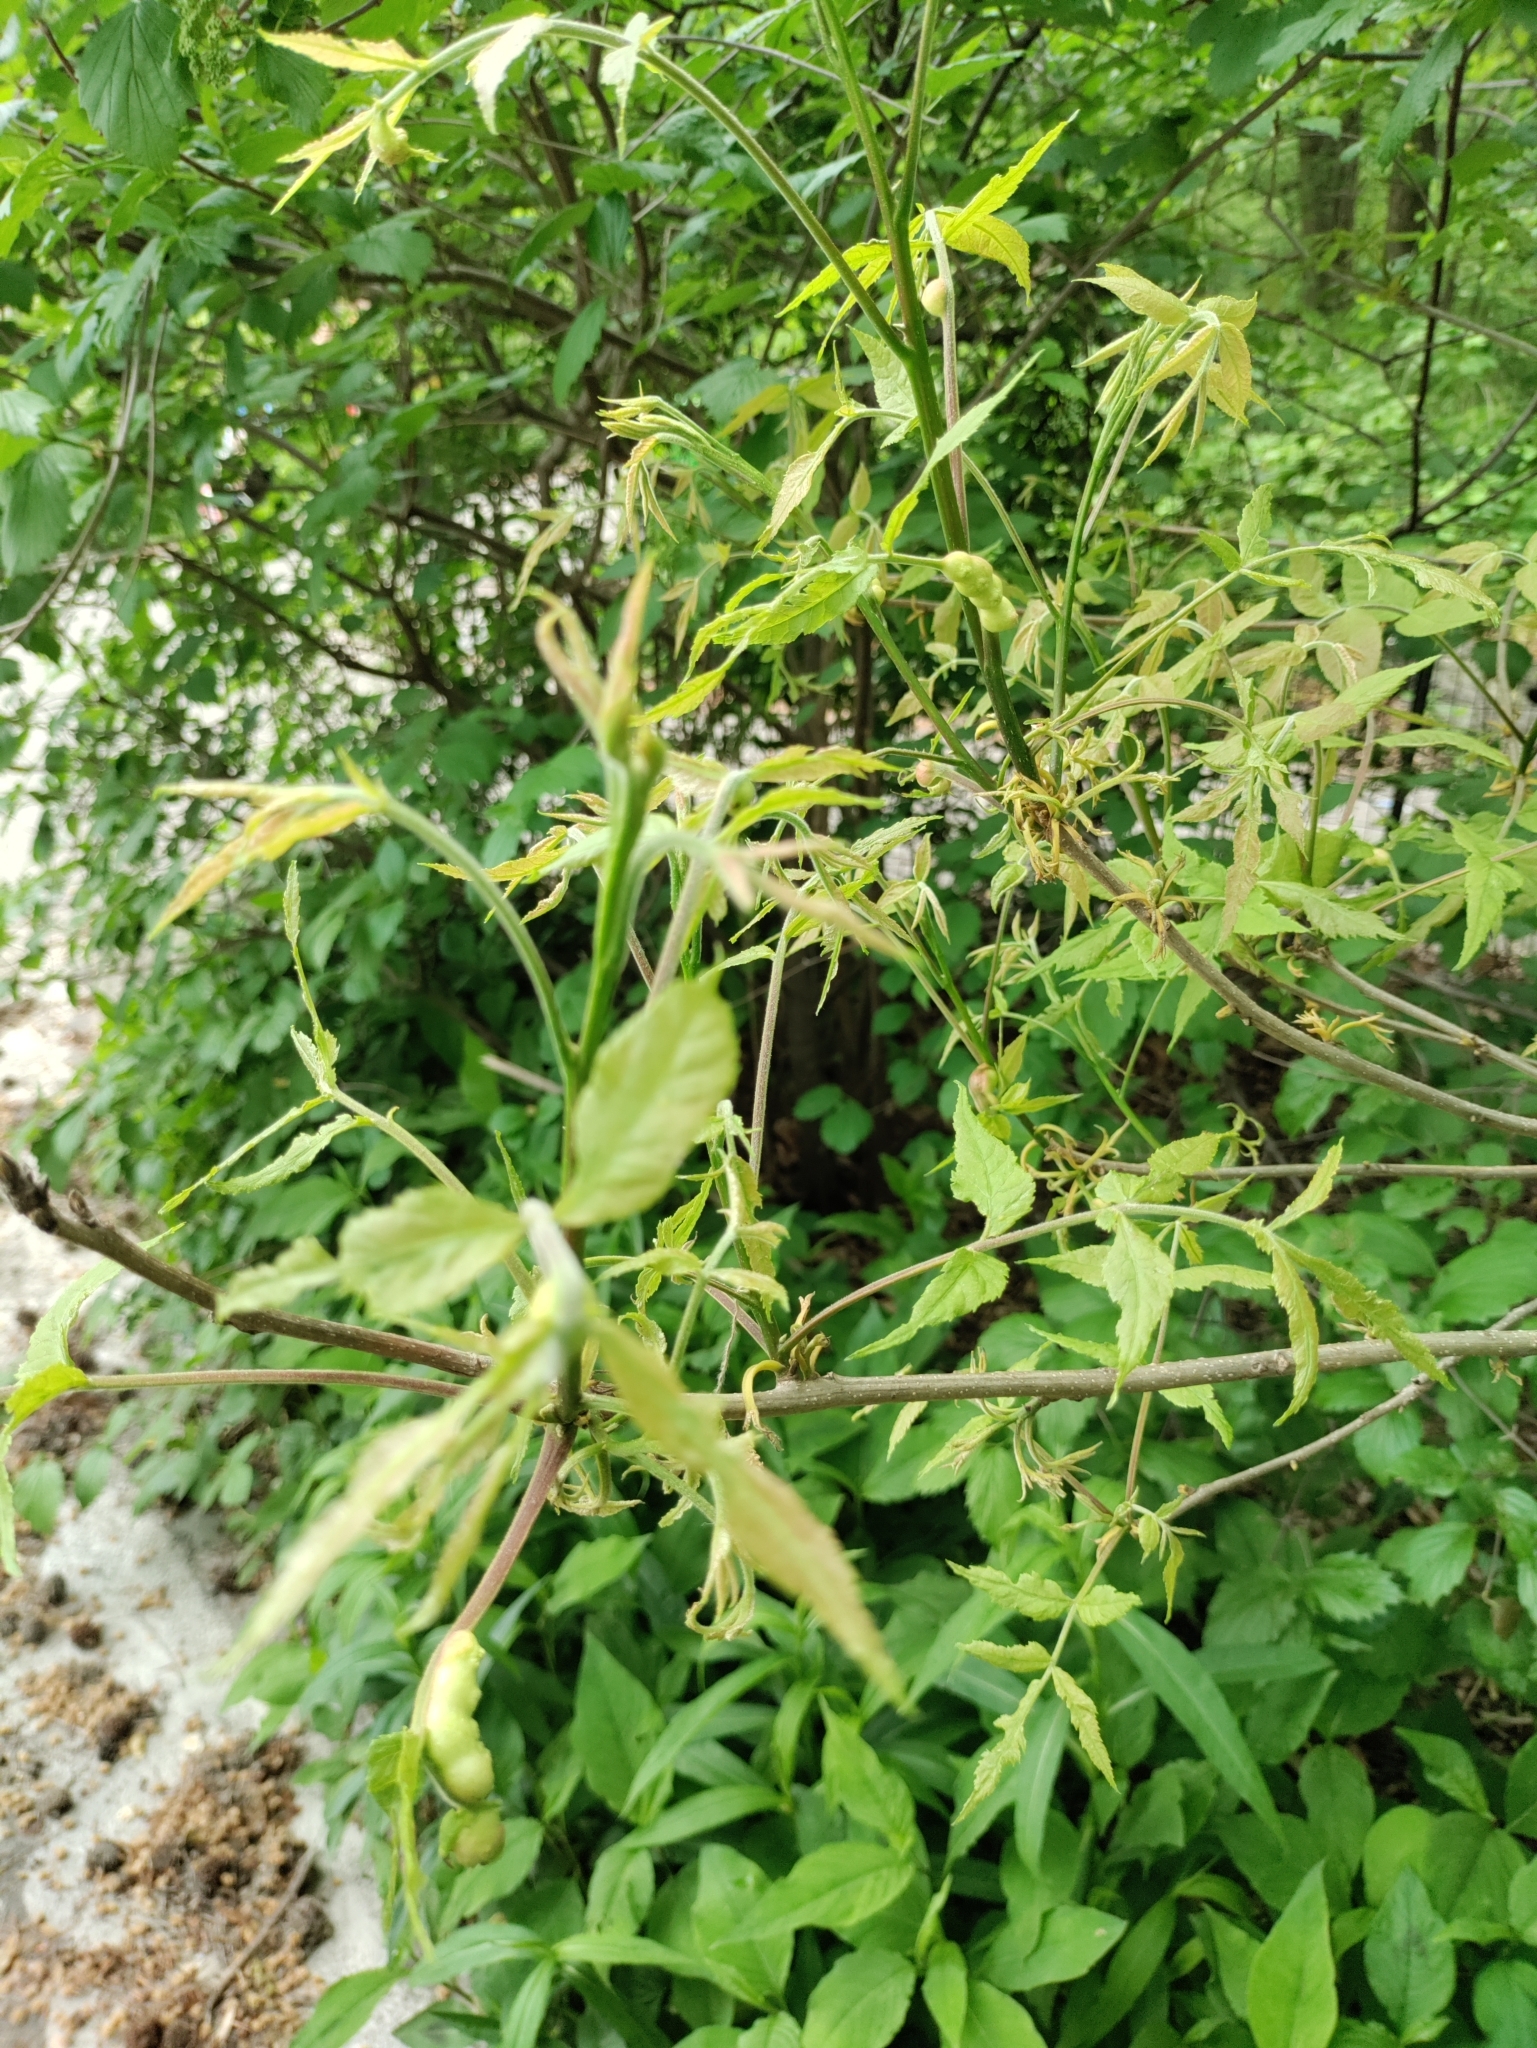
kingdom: Animalia
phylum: Arthropoda
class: Insecta
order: Hemiptera
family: Phylloxeridae
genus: Phylloxera
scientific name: Phylloxera
